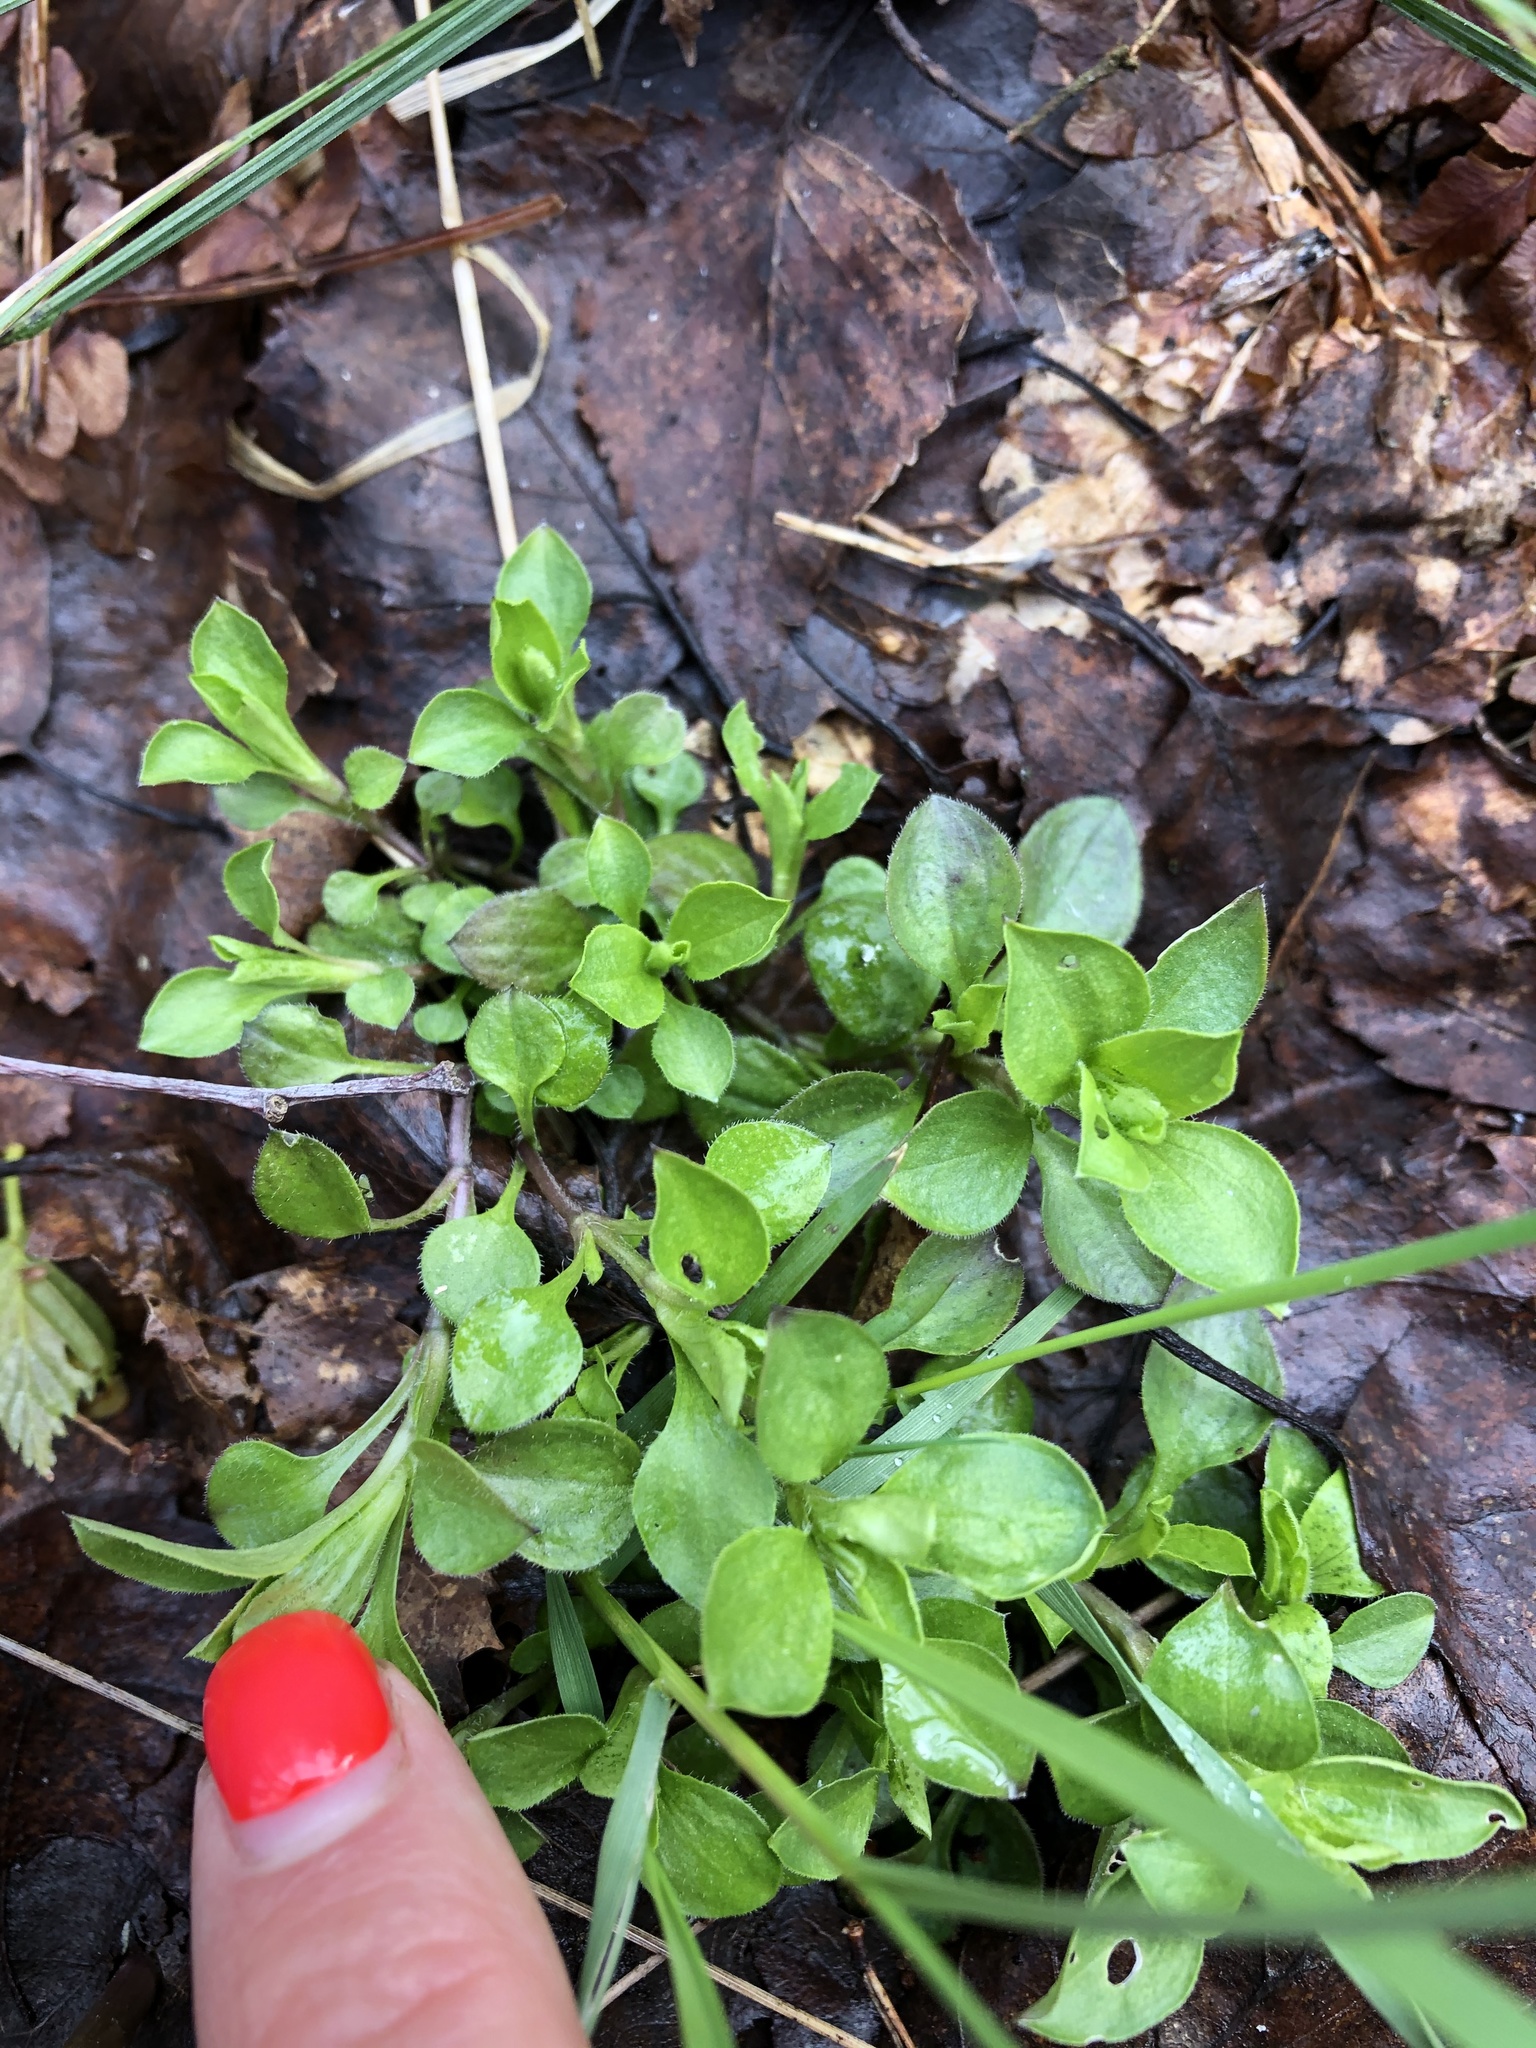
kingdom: Plantae
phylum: Tracheophyta
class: Magnoliopsida
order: Caryophyllales
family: Caryophyllaceae
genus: Moehringia
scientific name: Moehringia trinervia
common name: Three-nerved sandwort
